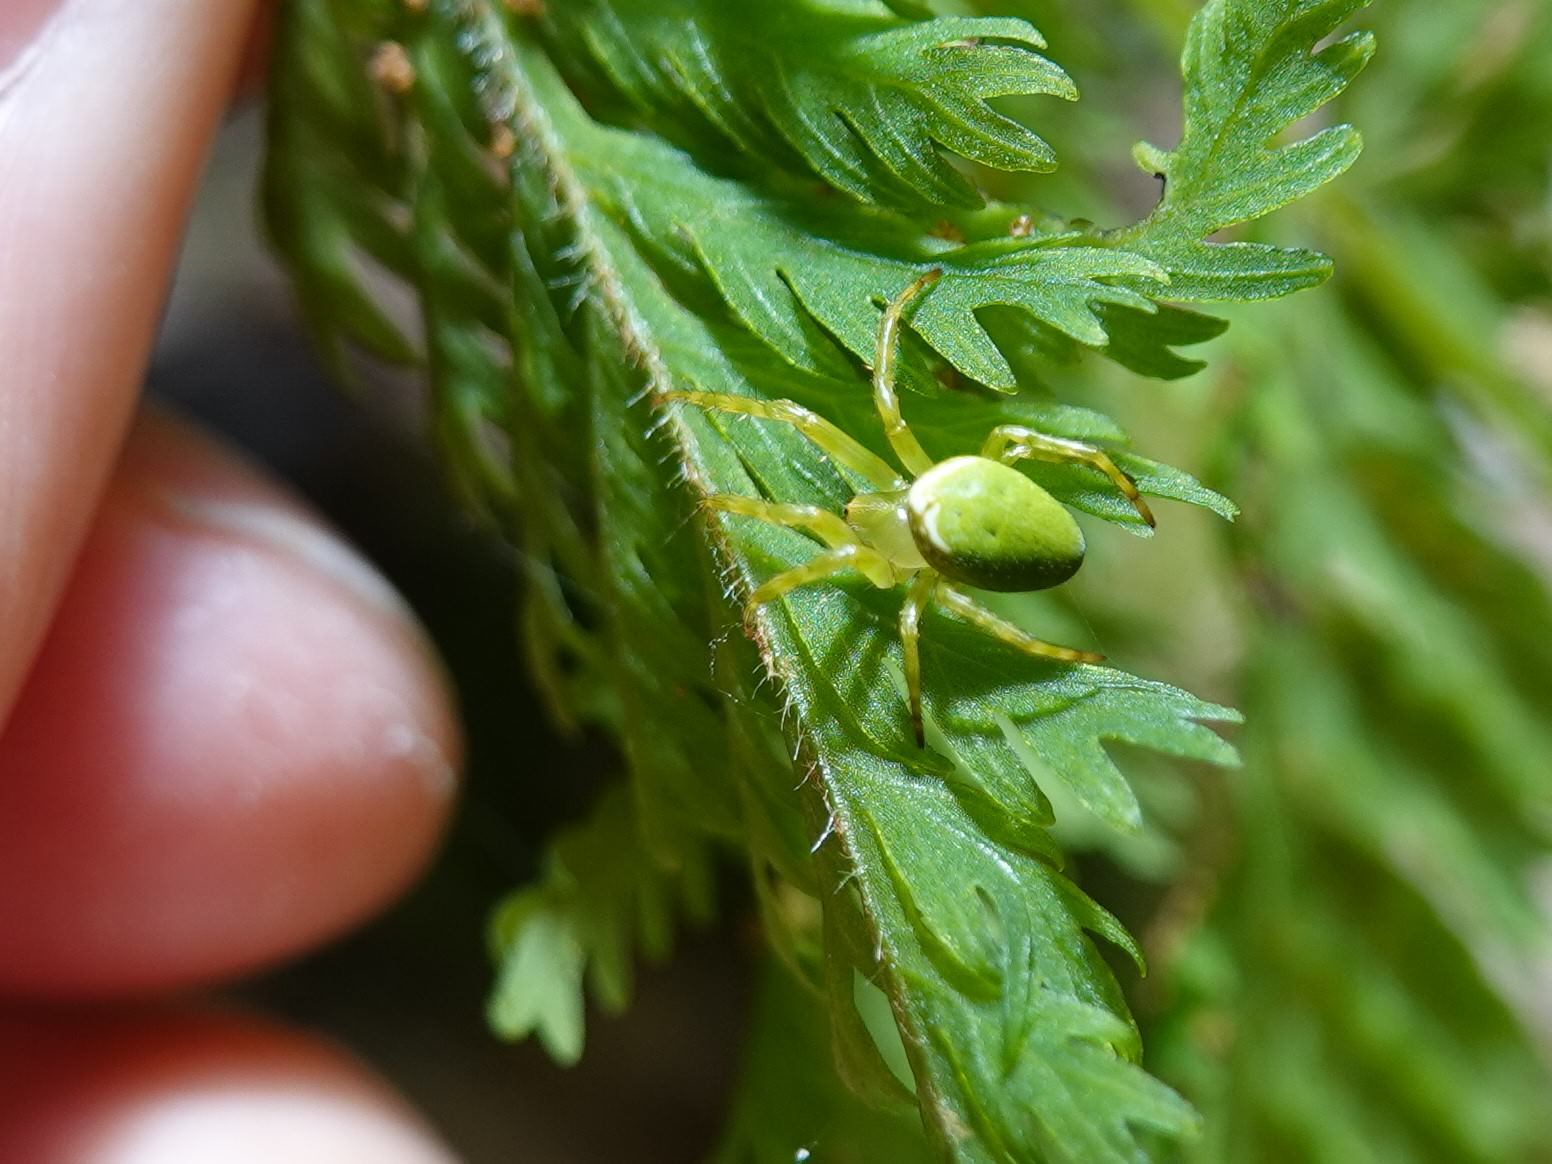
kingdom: Animalia
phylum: Arthropoda
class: Arachnida
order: Araneae
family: Araneidae
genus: Colaranea
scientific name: Colaranea viriditas
